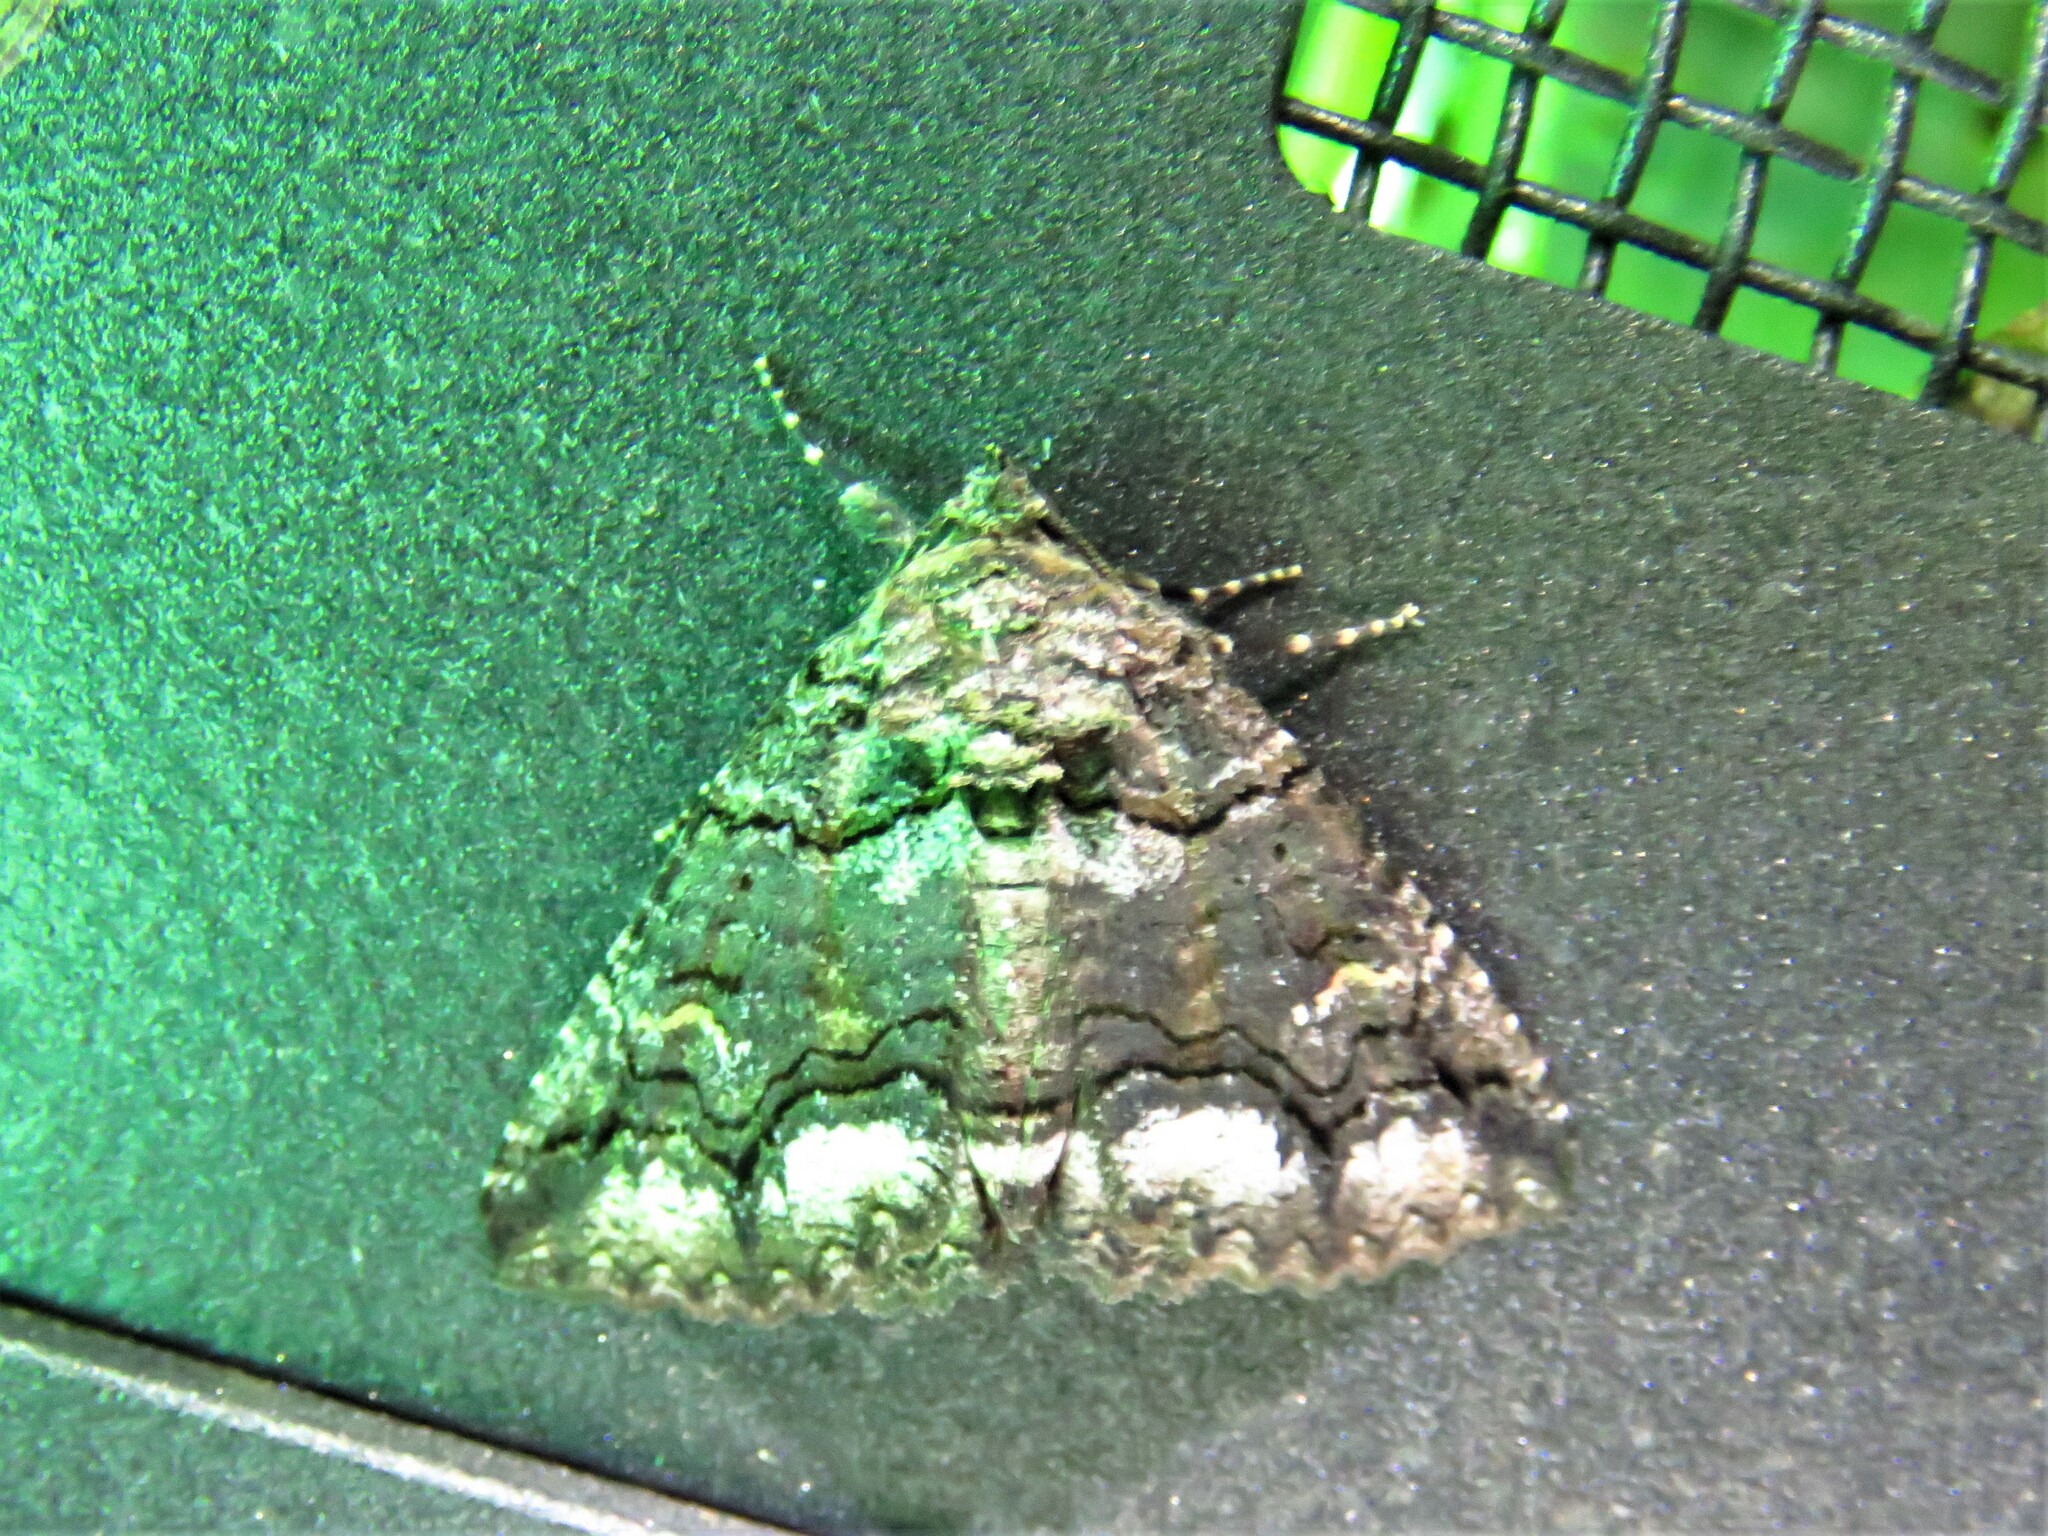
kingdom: Animalia
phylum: Arthropoda
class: Insecta
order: Lepidoptera
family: Erebidae
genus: Zale
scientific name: Zale edusina
